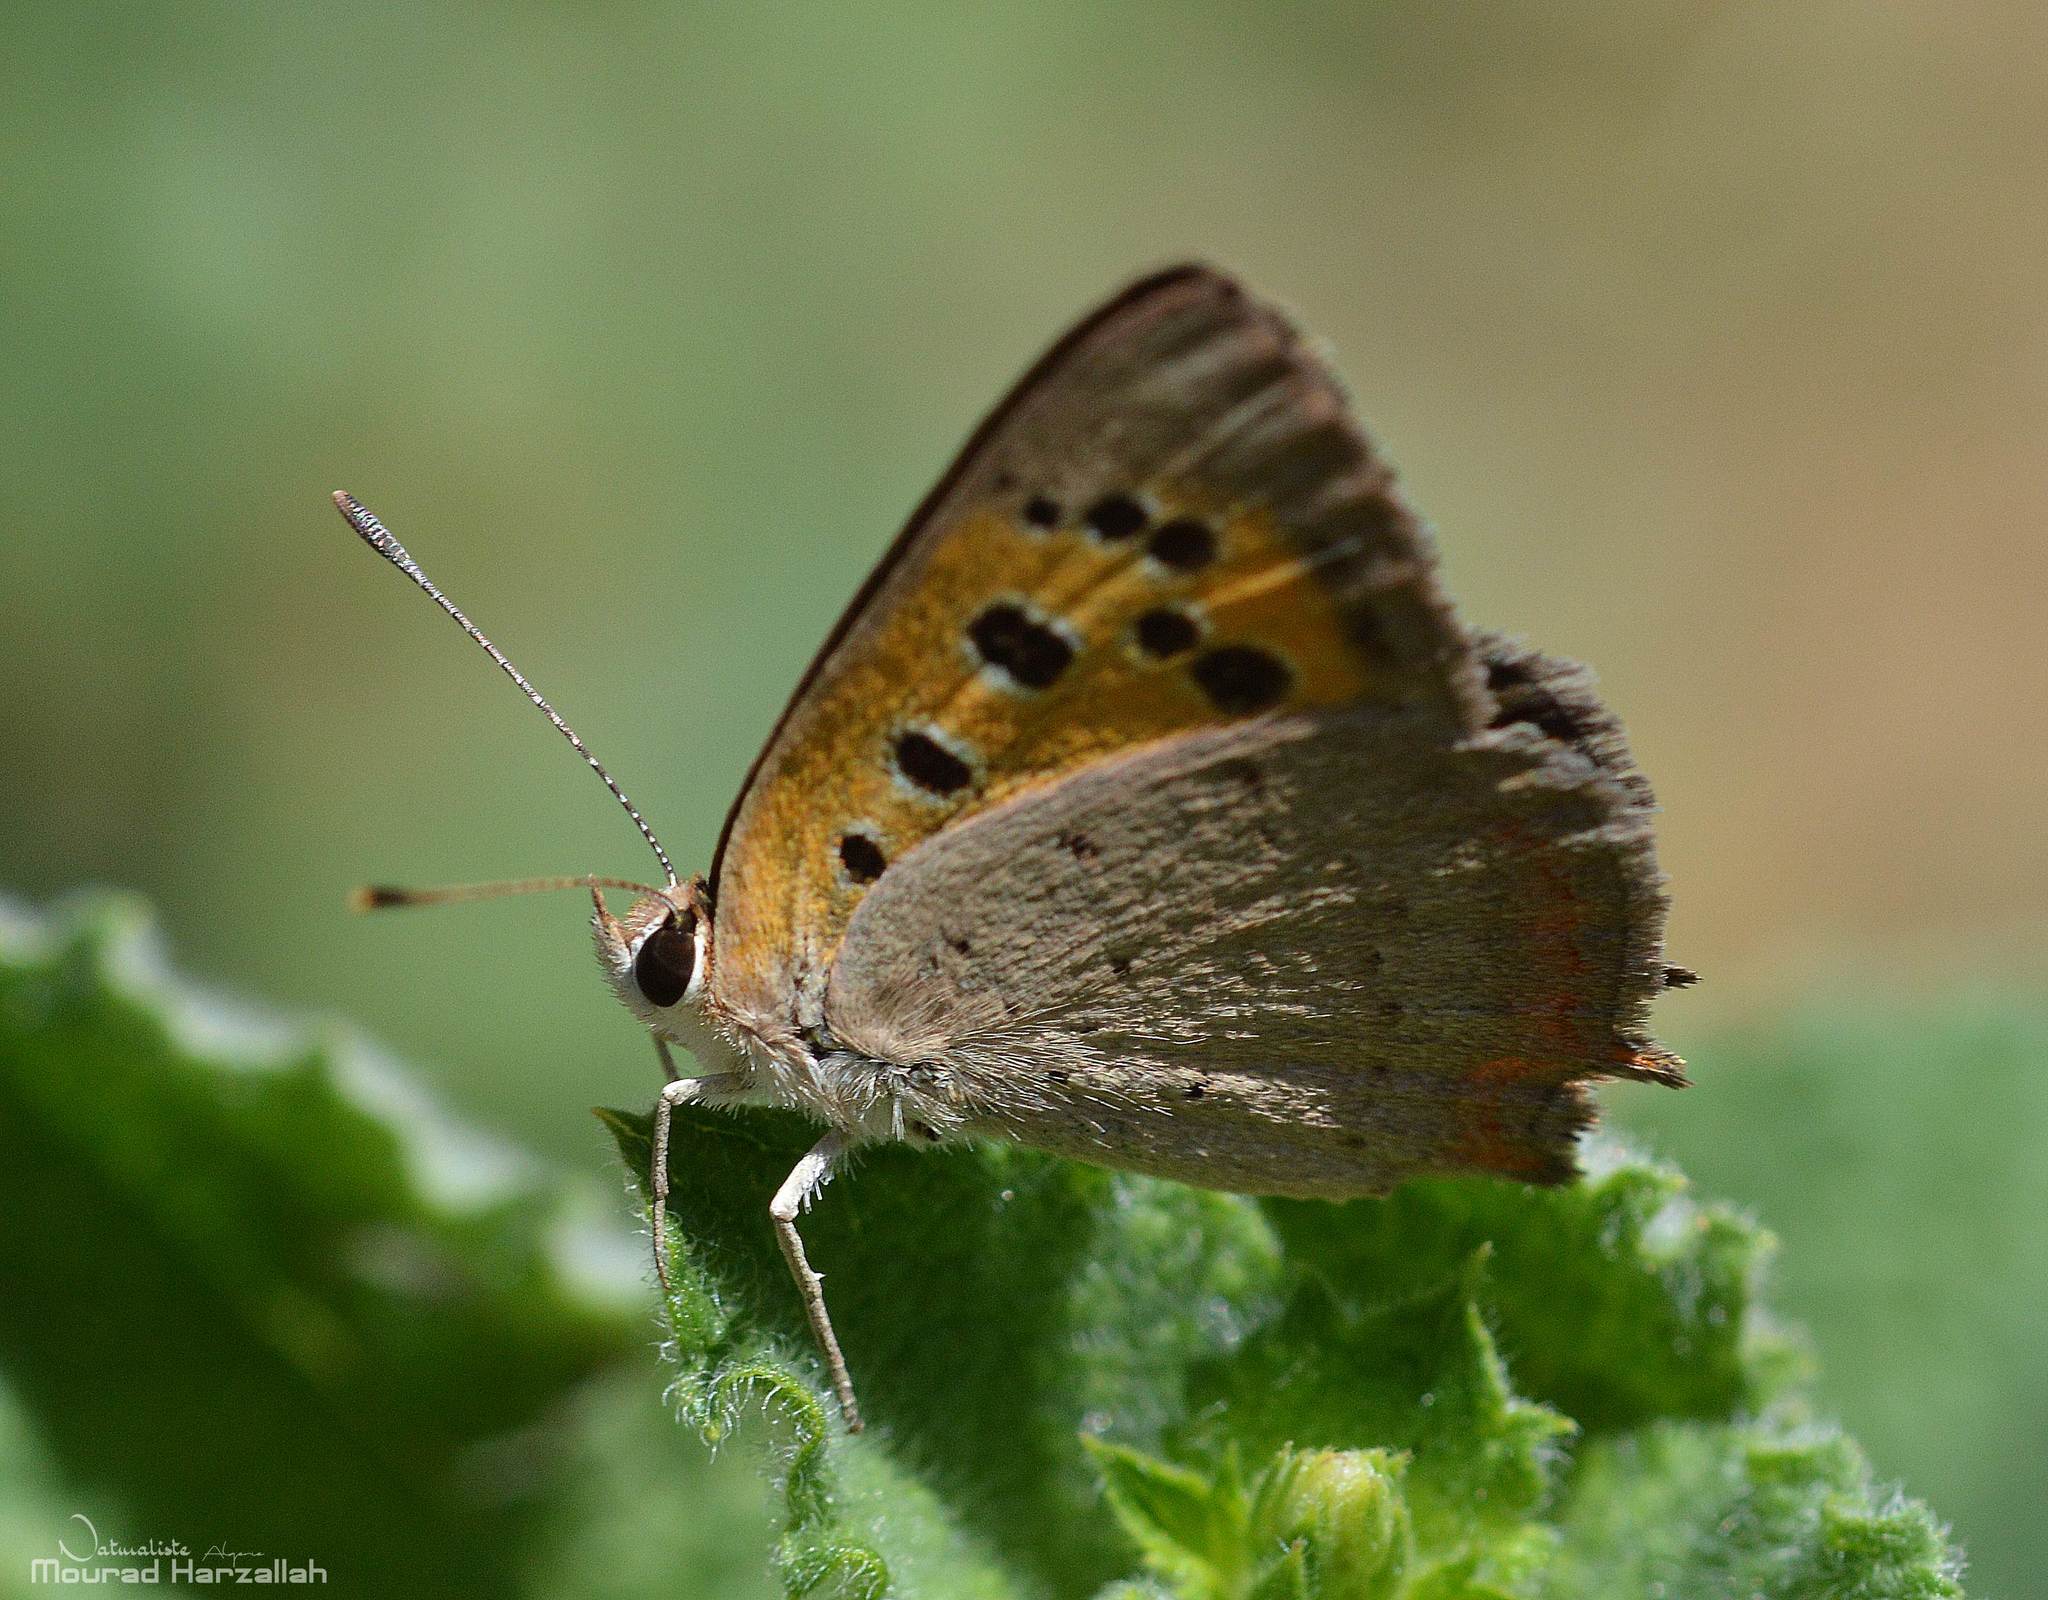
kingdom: Animalia
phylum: Arthropoda
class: Insecta
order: Lepidoptera
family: Lycaenidae
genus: Lycaena
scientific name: Lycaena phlaeas
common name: Small copper
